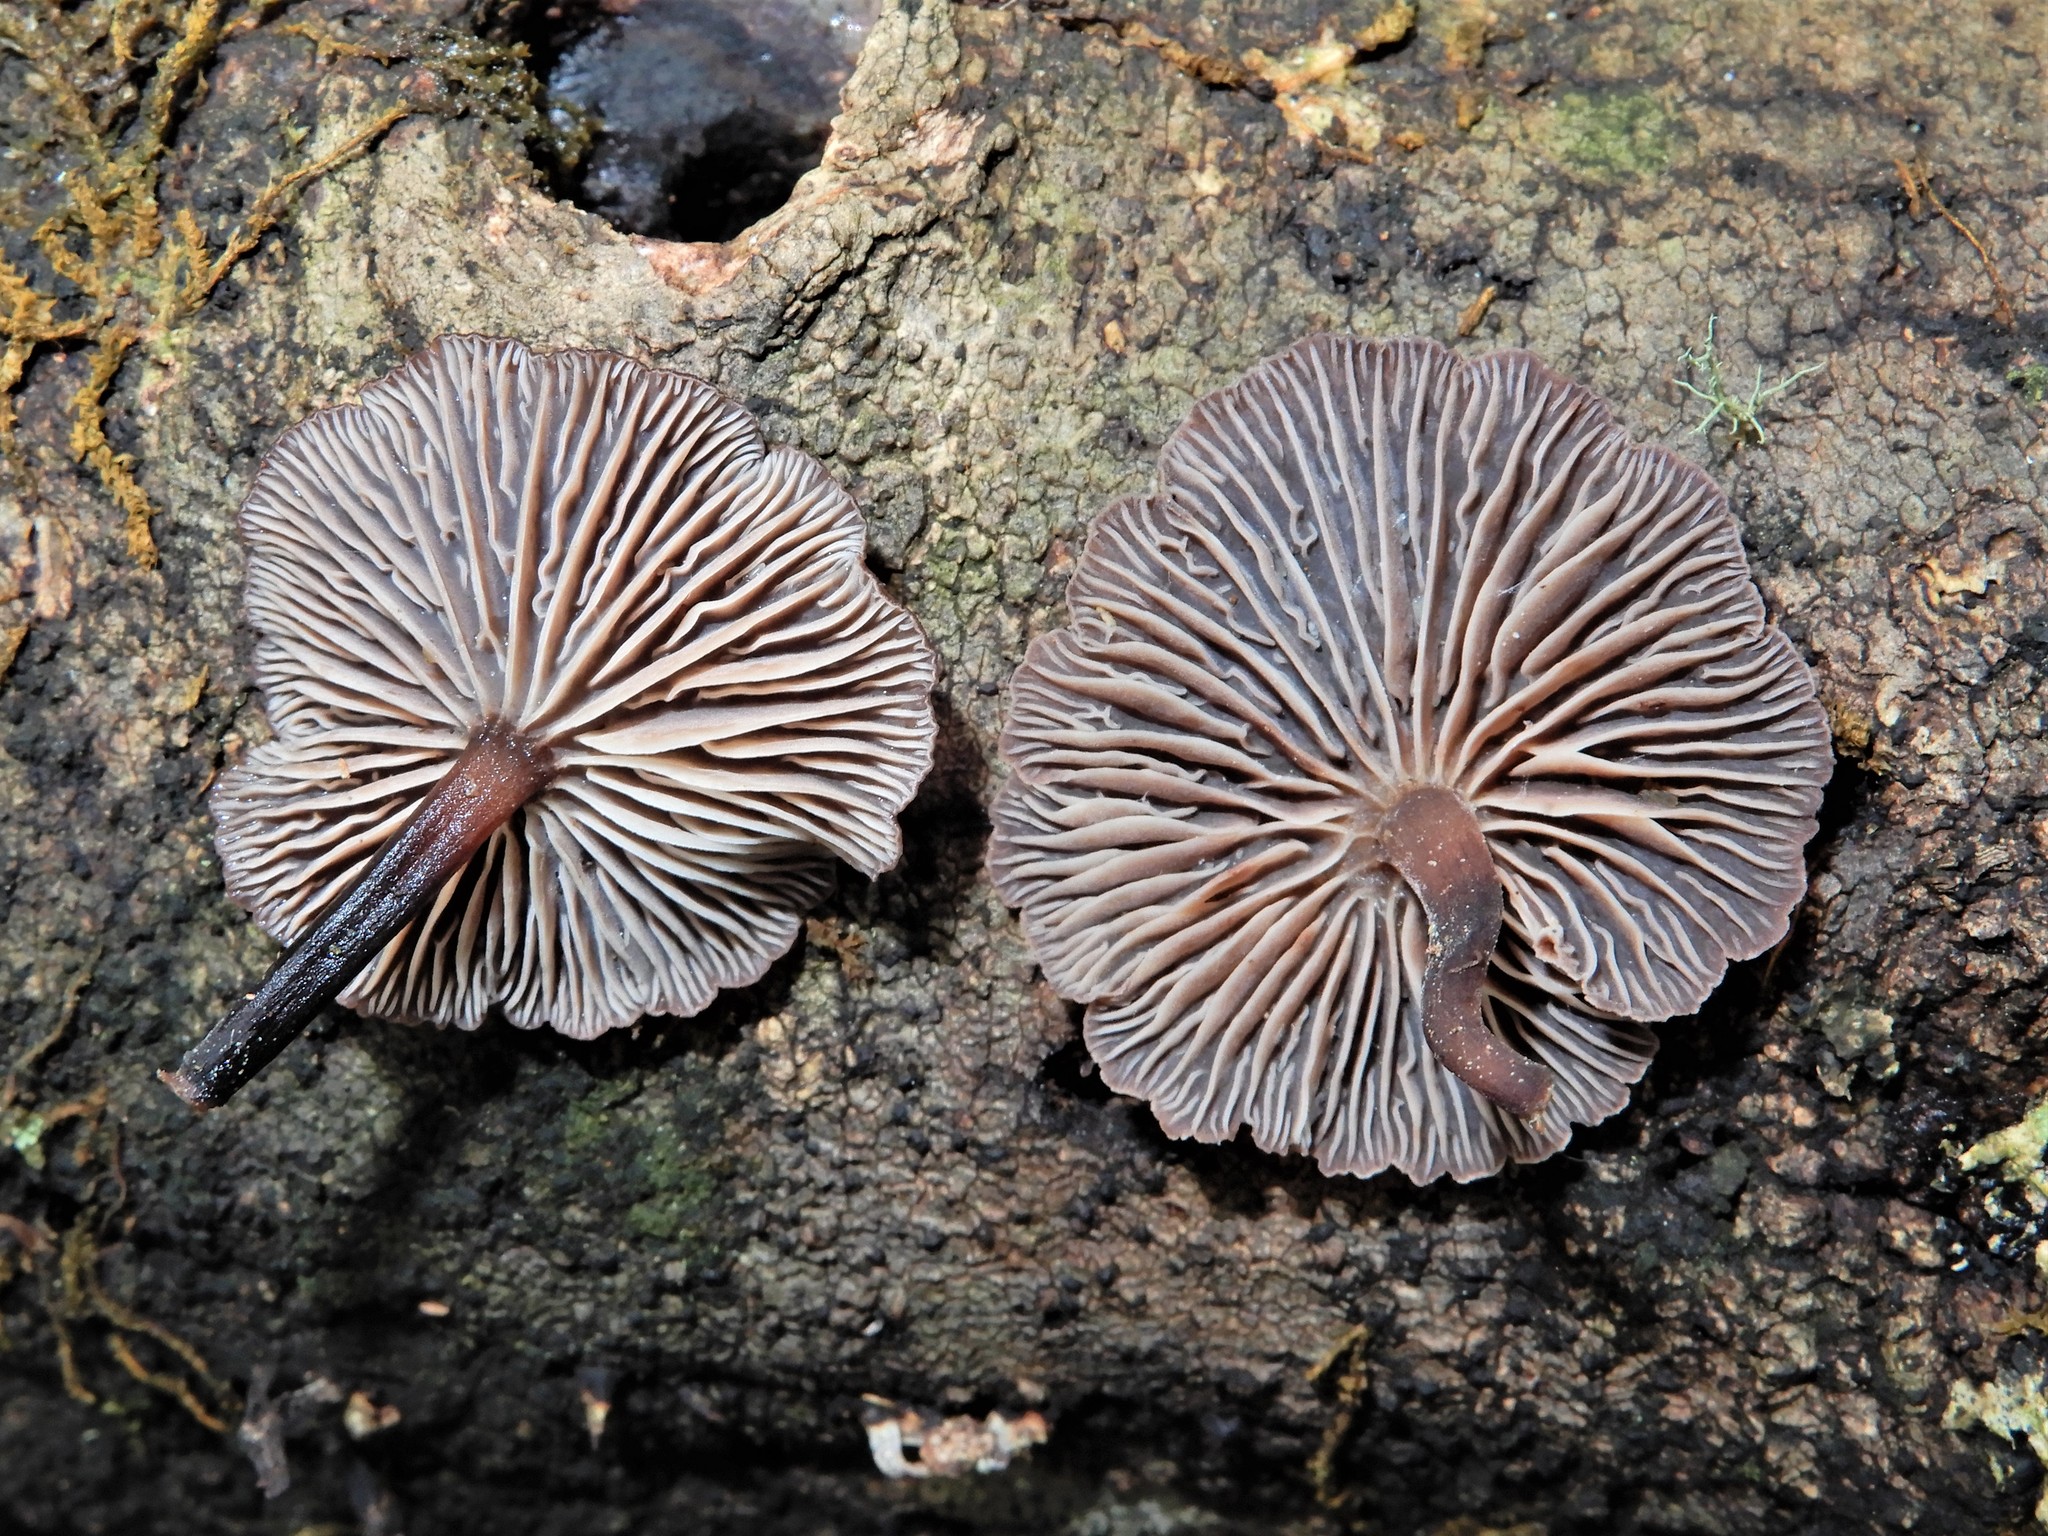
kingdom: Fungi
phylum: Basidiomycota
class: Agaricomycetes
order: Agaricales
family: Omphalotaceae
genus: Gymnopus
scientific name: Gymnopus ceraceicola
